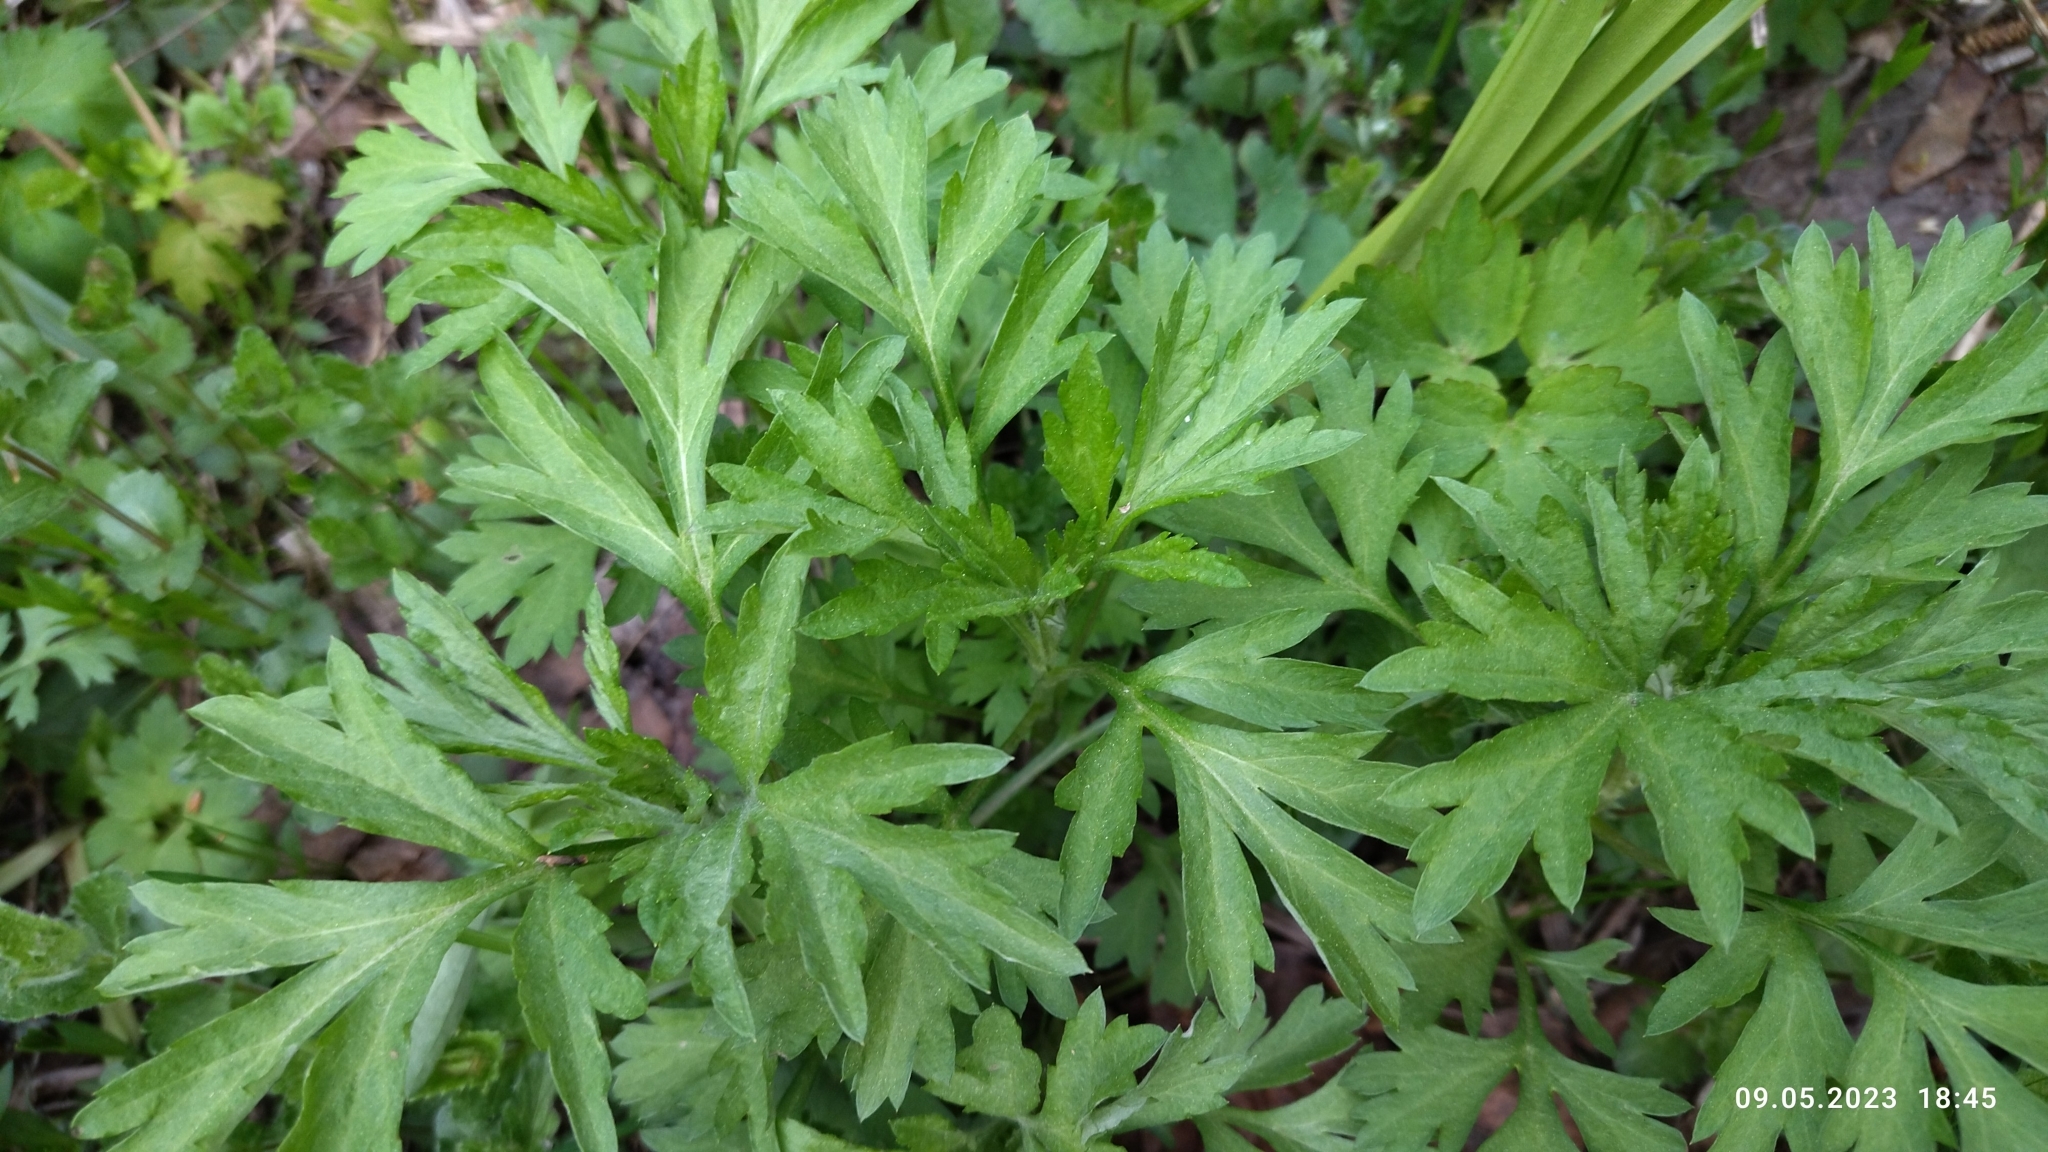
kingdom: Plantae
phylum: Tracheophyta
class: Magnoliopsida
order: Asterales
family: Asteraceae
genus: Artemisia
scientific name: Artemisia vulgaris
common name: Mugwort
